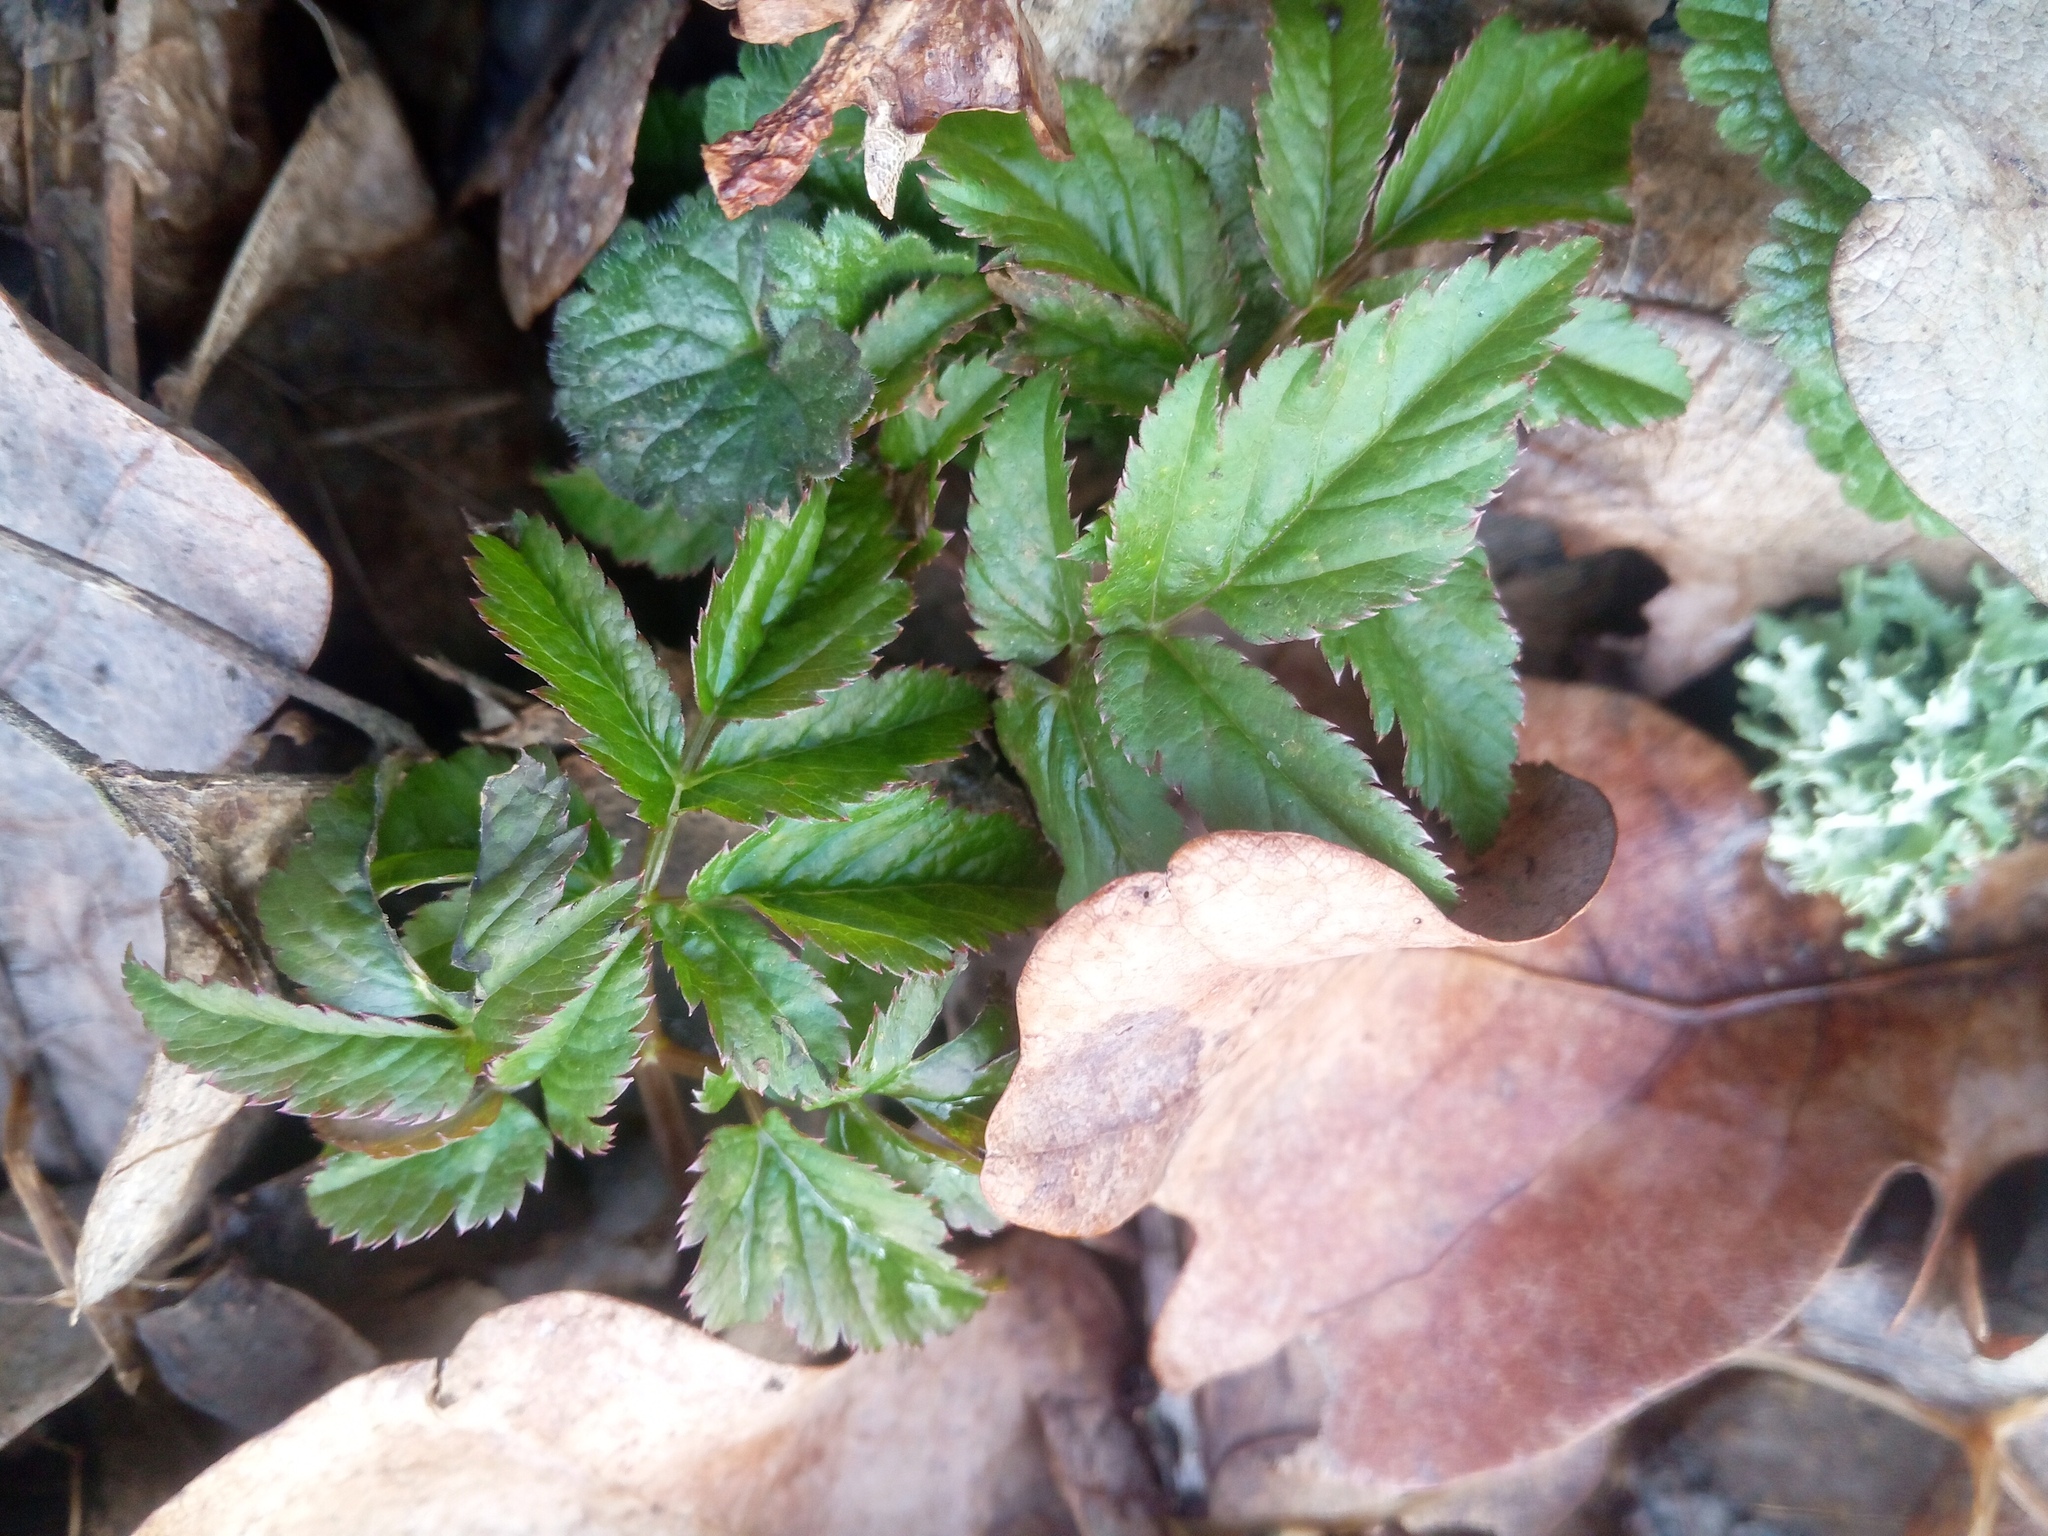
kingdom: Plantae
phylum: Tracheophyta
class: Magnoliopsida
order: Apiales
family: Apiaceae
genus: Aegopodium
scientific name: Aegopodium podagraria
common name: Ground-elder
